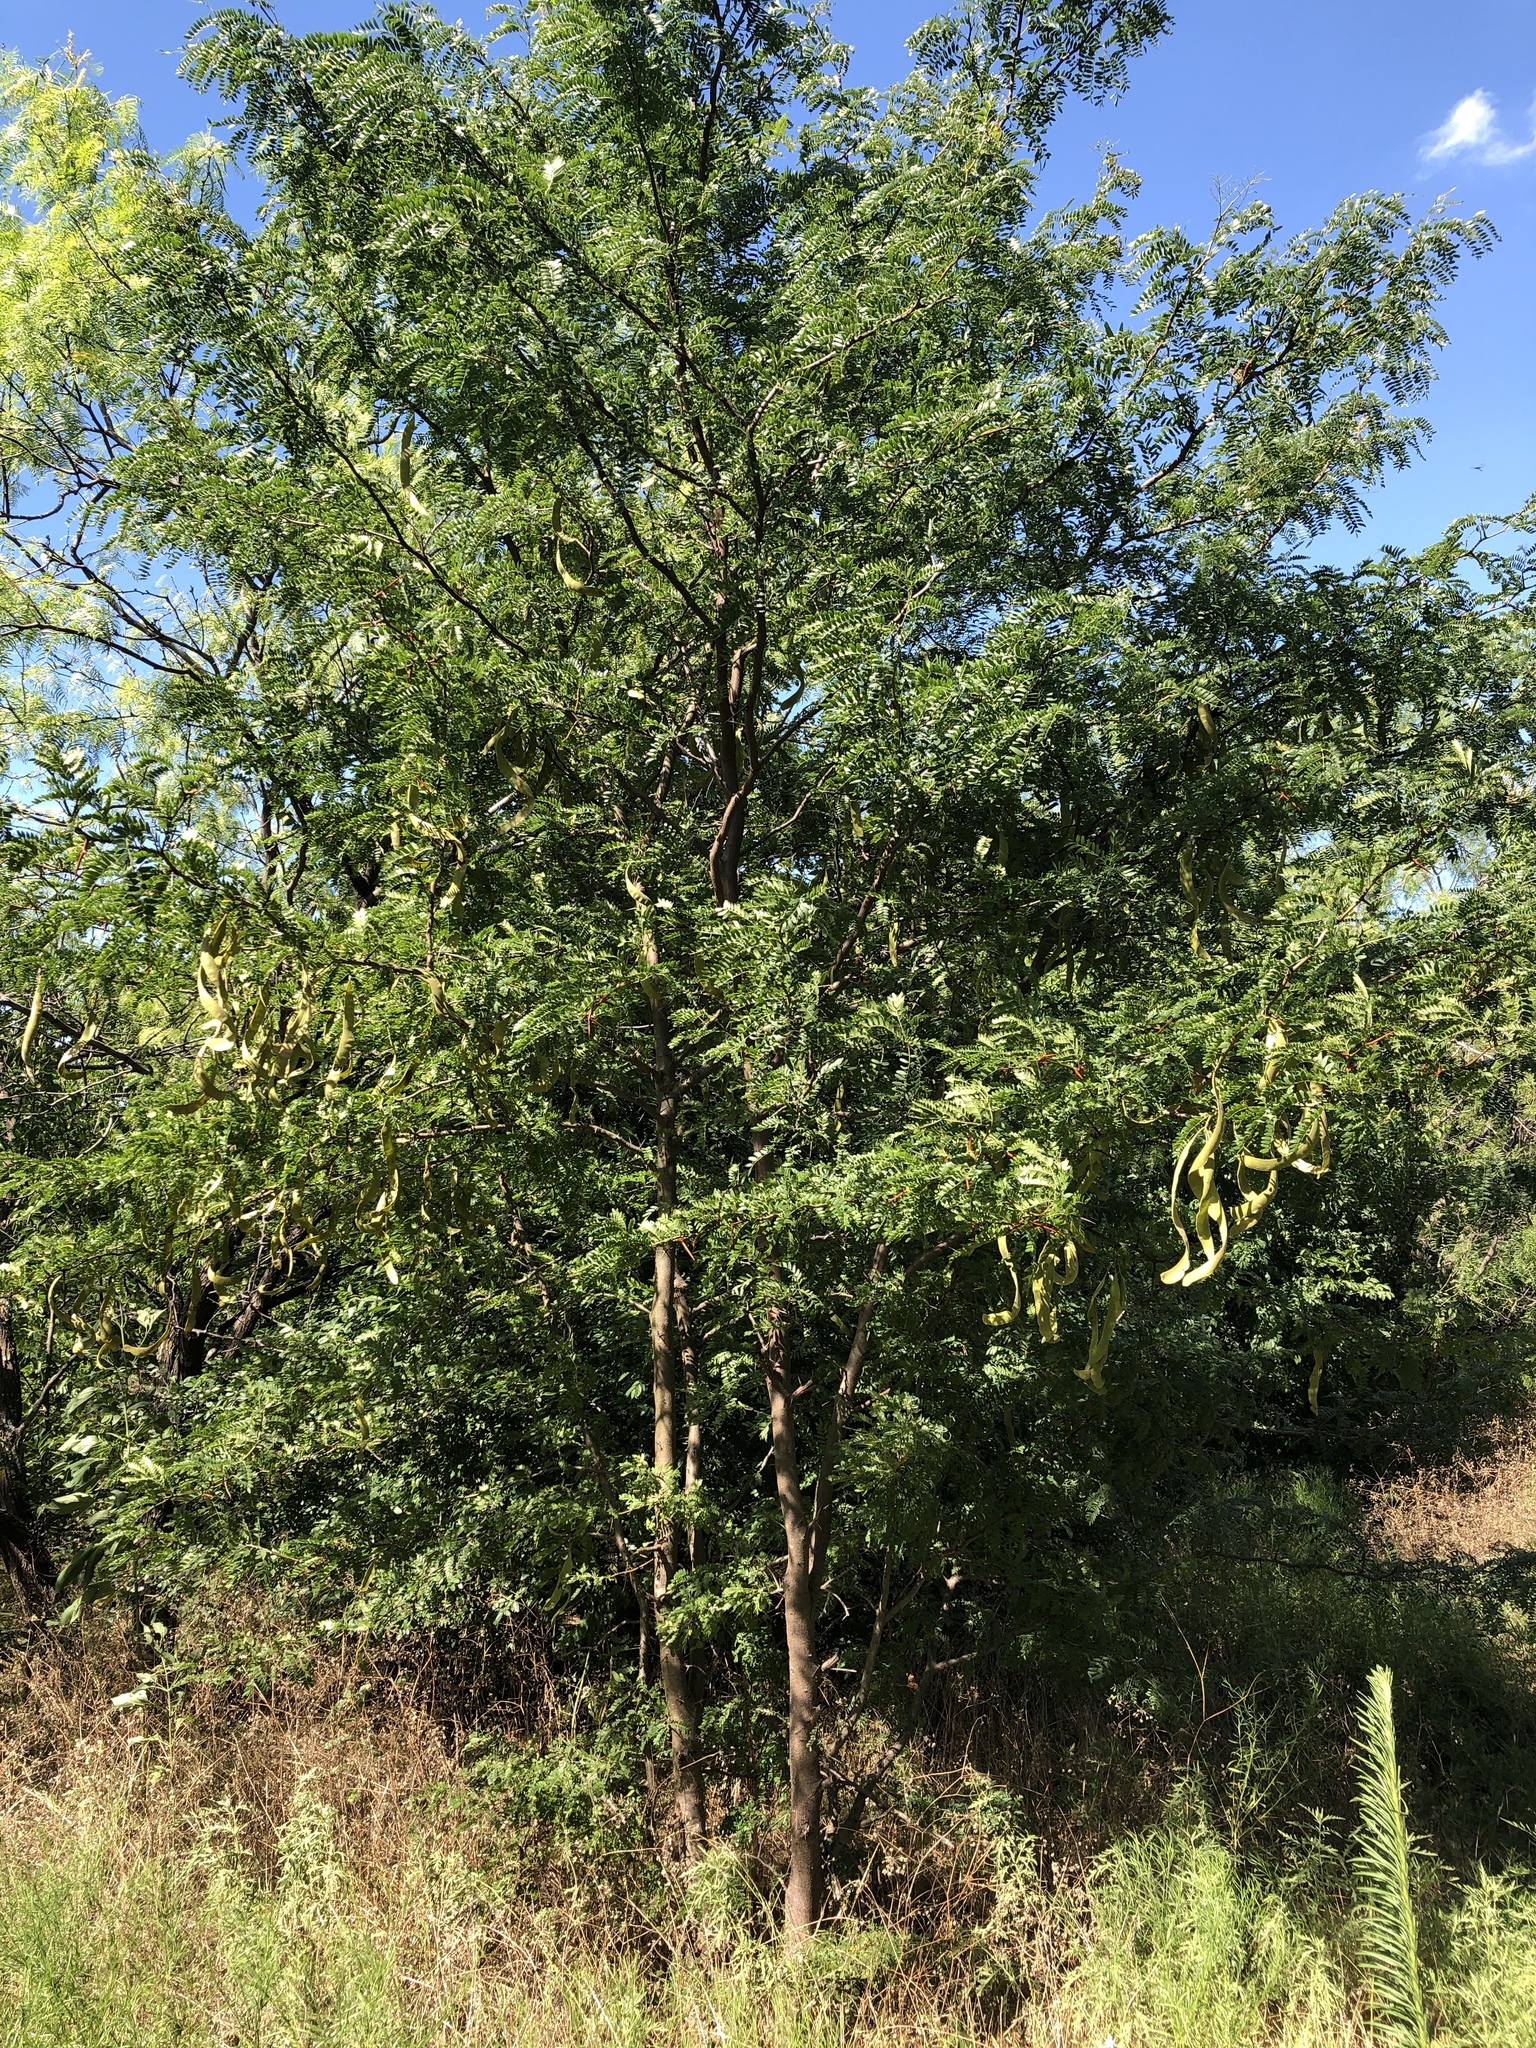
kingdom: Plantae
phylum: Tracheophyta
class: Magnoliopsida
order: Fabales
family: Fabaceae
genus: Gleditsia
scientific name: Gleditsia triacanthos
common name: Common honeylocust
